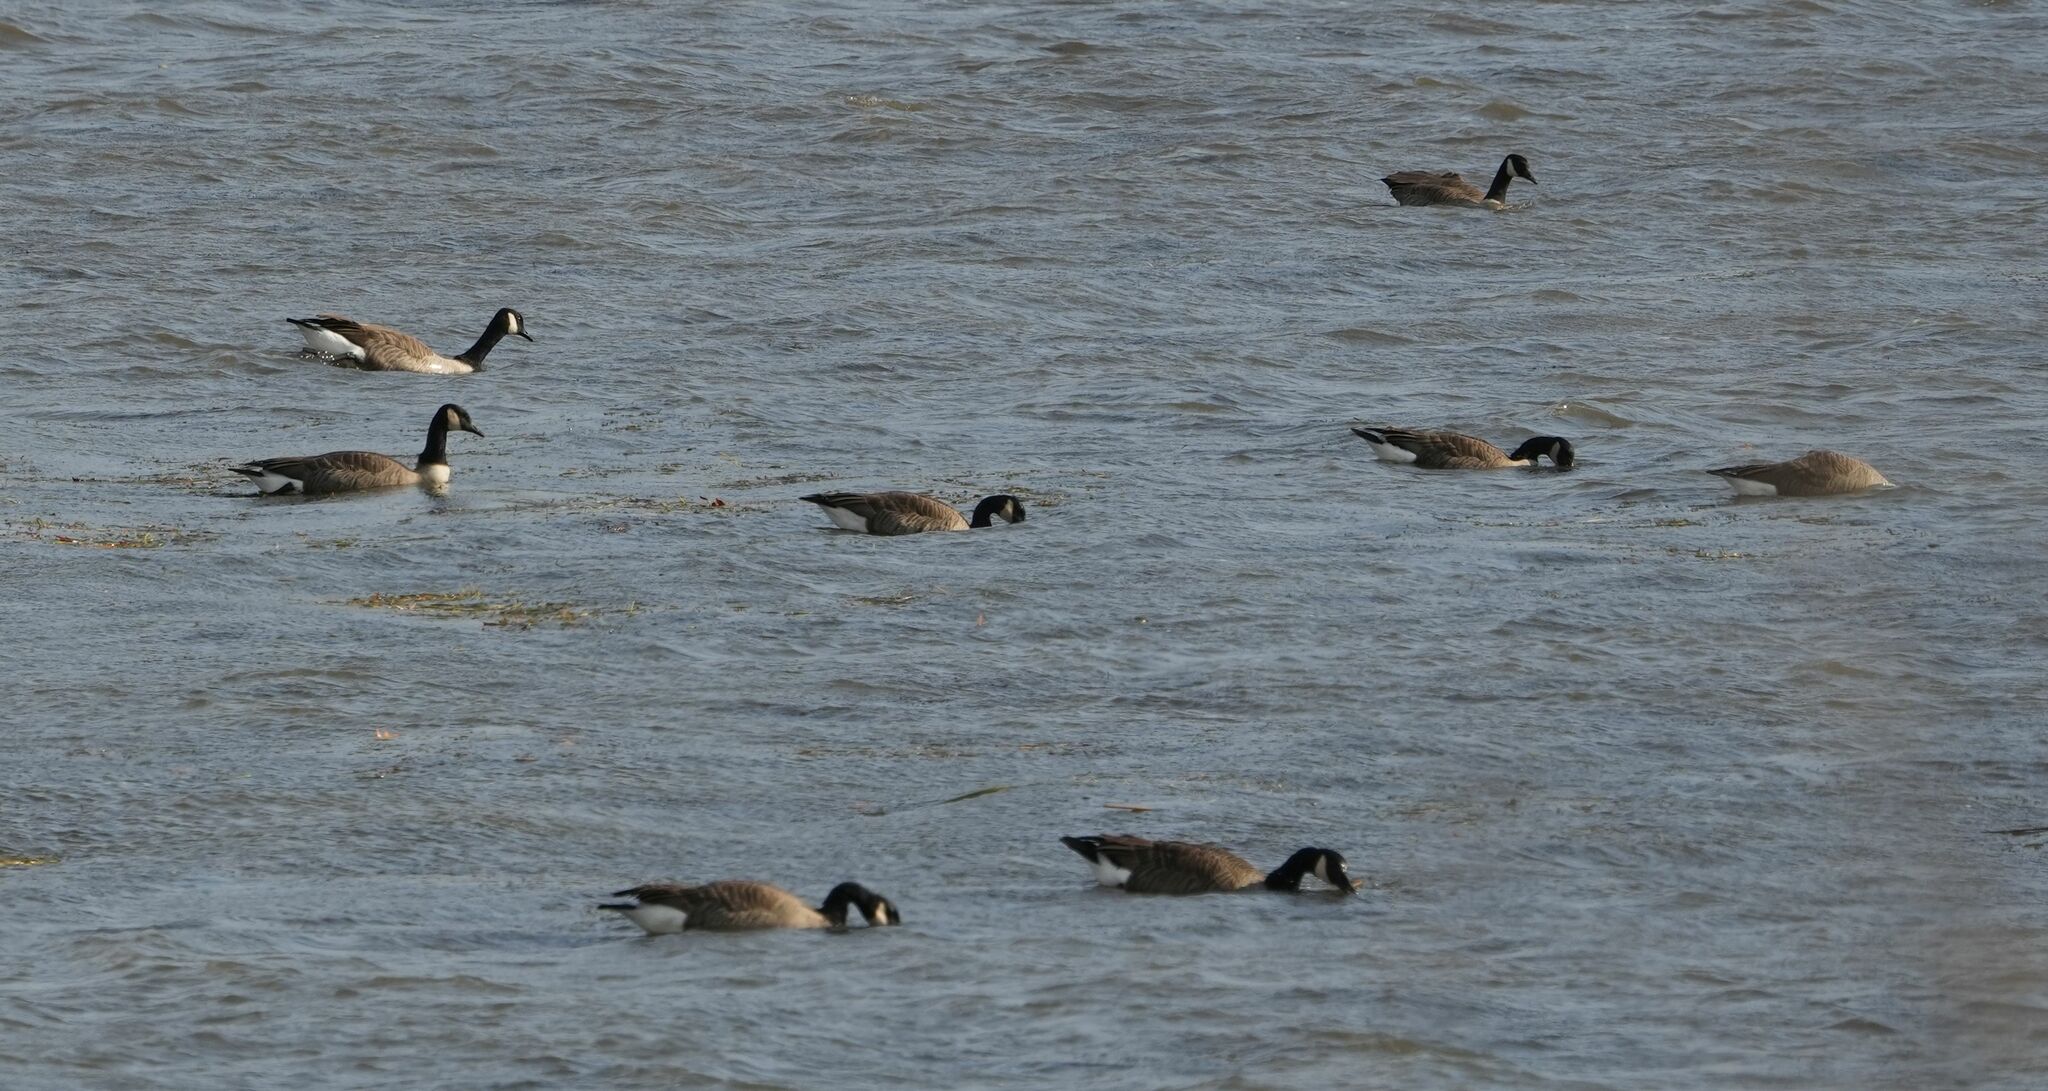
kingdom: Animalia
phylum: Chordata
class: Aves
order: Anseriformes
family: Anatidae
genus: Branta
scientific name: Branta canadensis
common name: Canada goose
